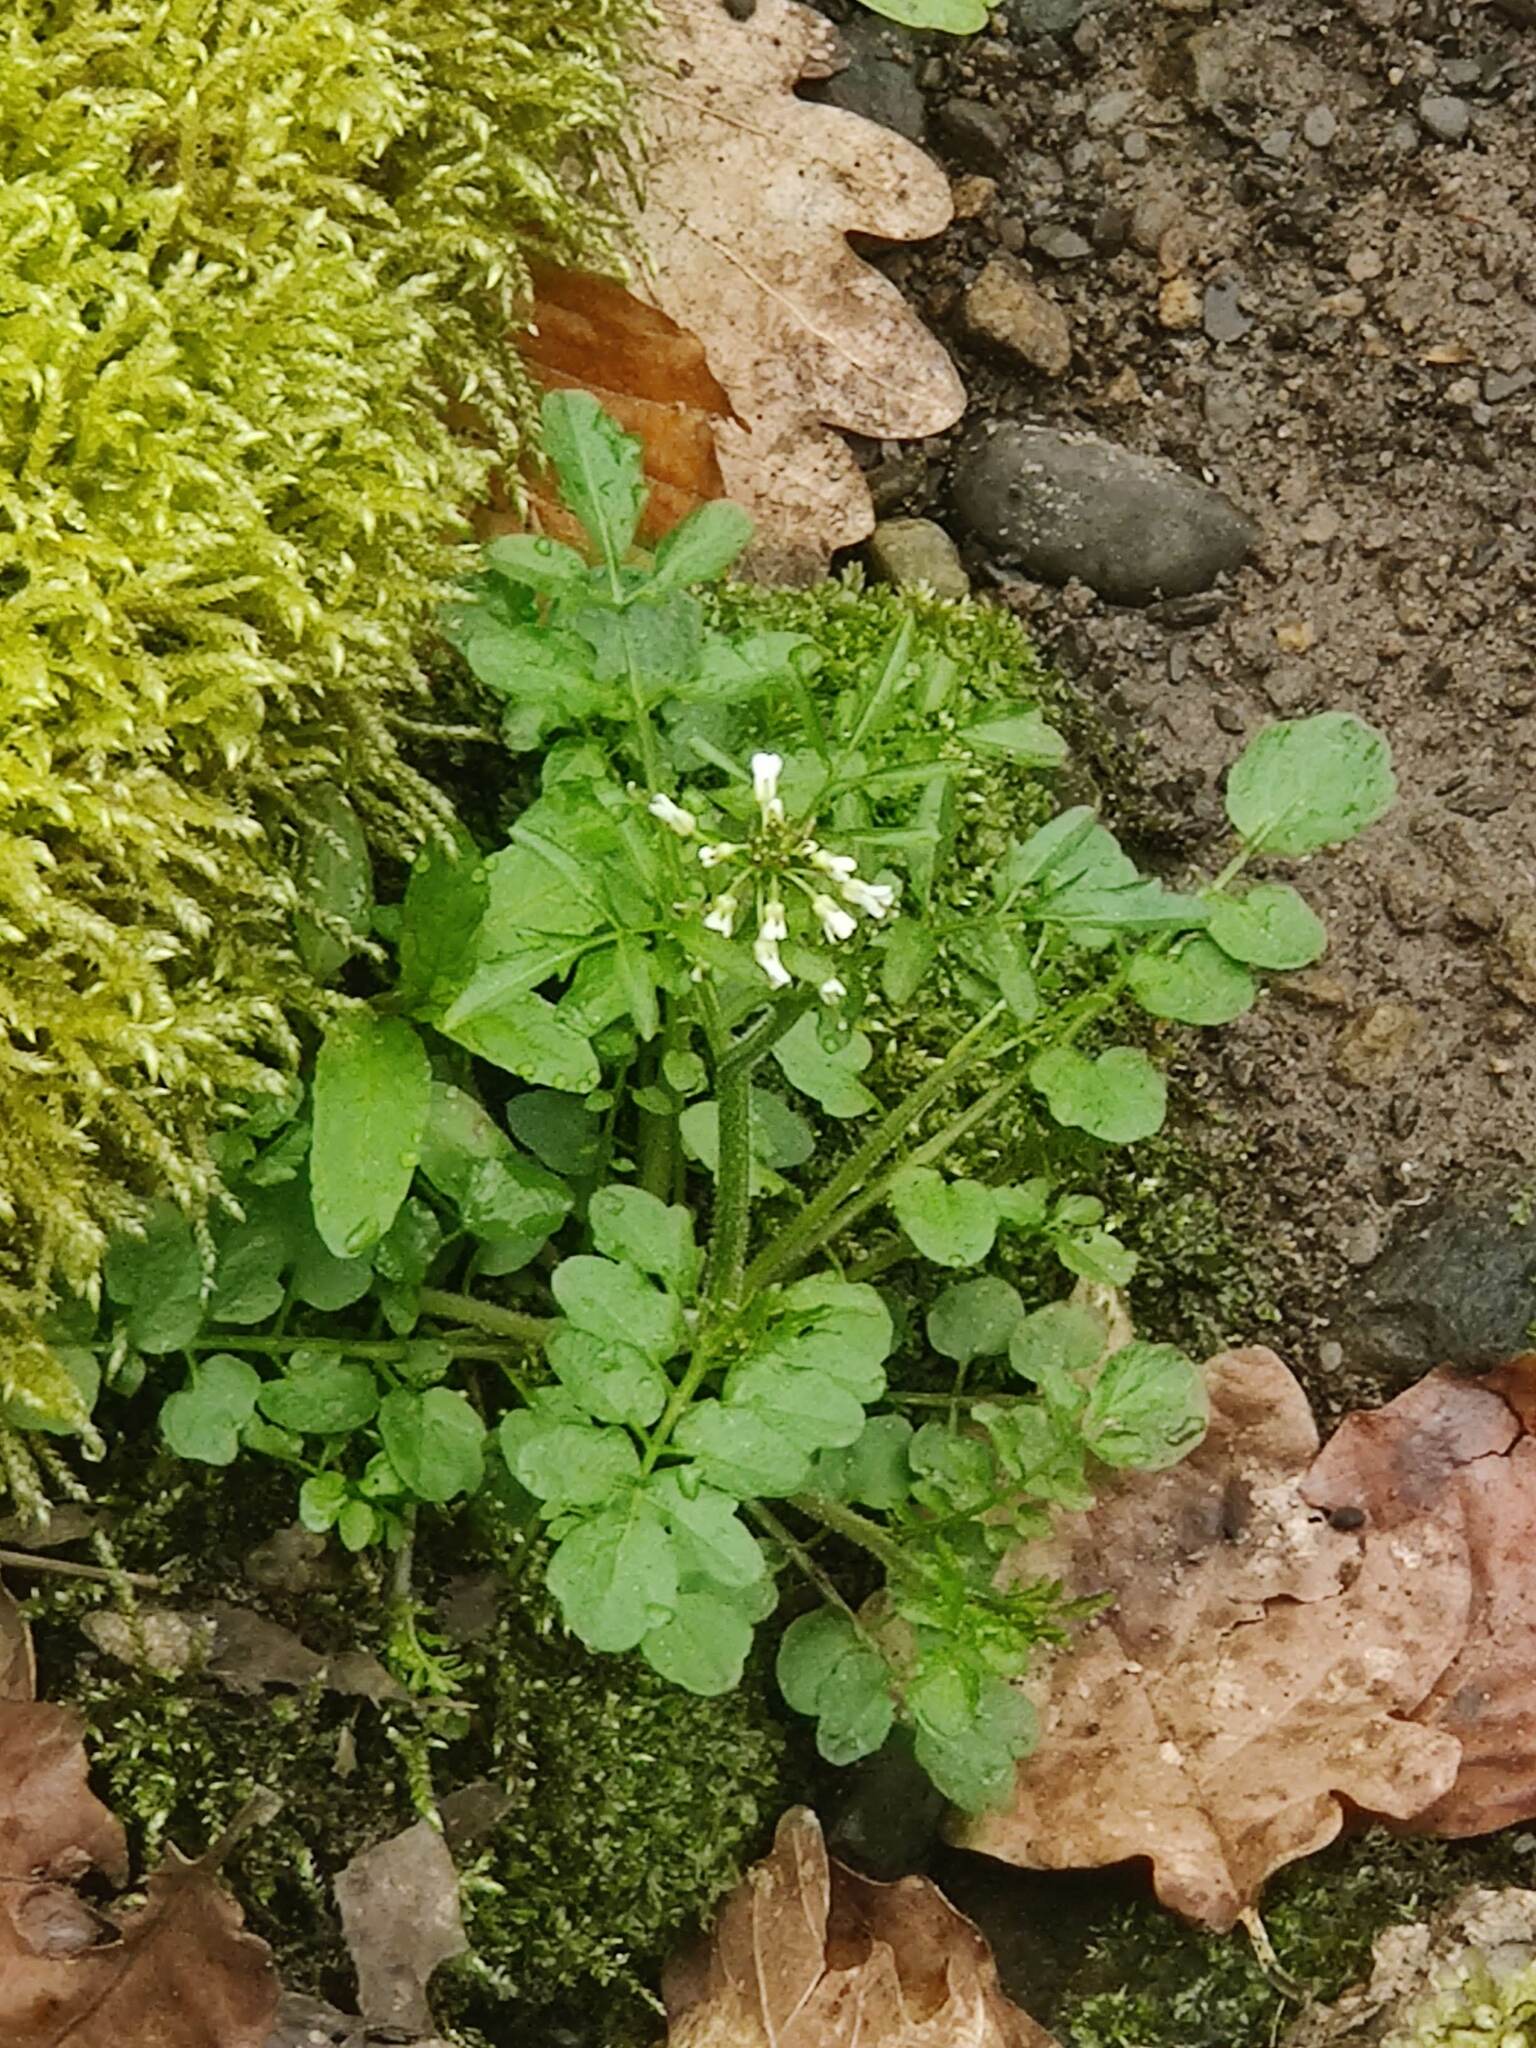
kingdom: Plantae
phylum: Tracheophyta
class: Magnoliopsida
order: Brassicales
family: Brassicaceae
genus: Cardamine
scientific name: Cardamine flexuosa
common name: Woodland bittercress
